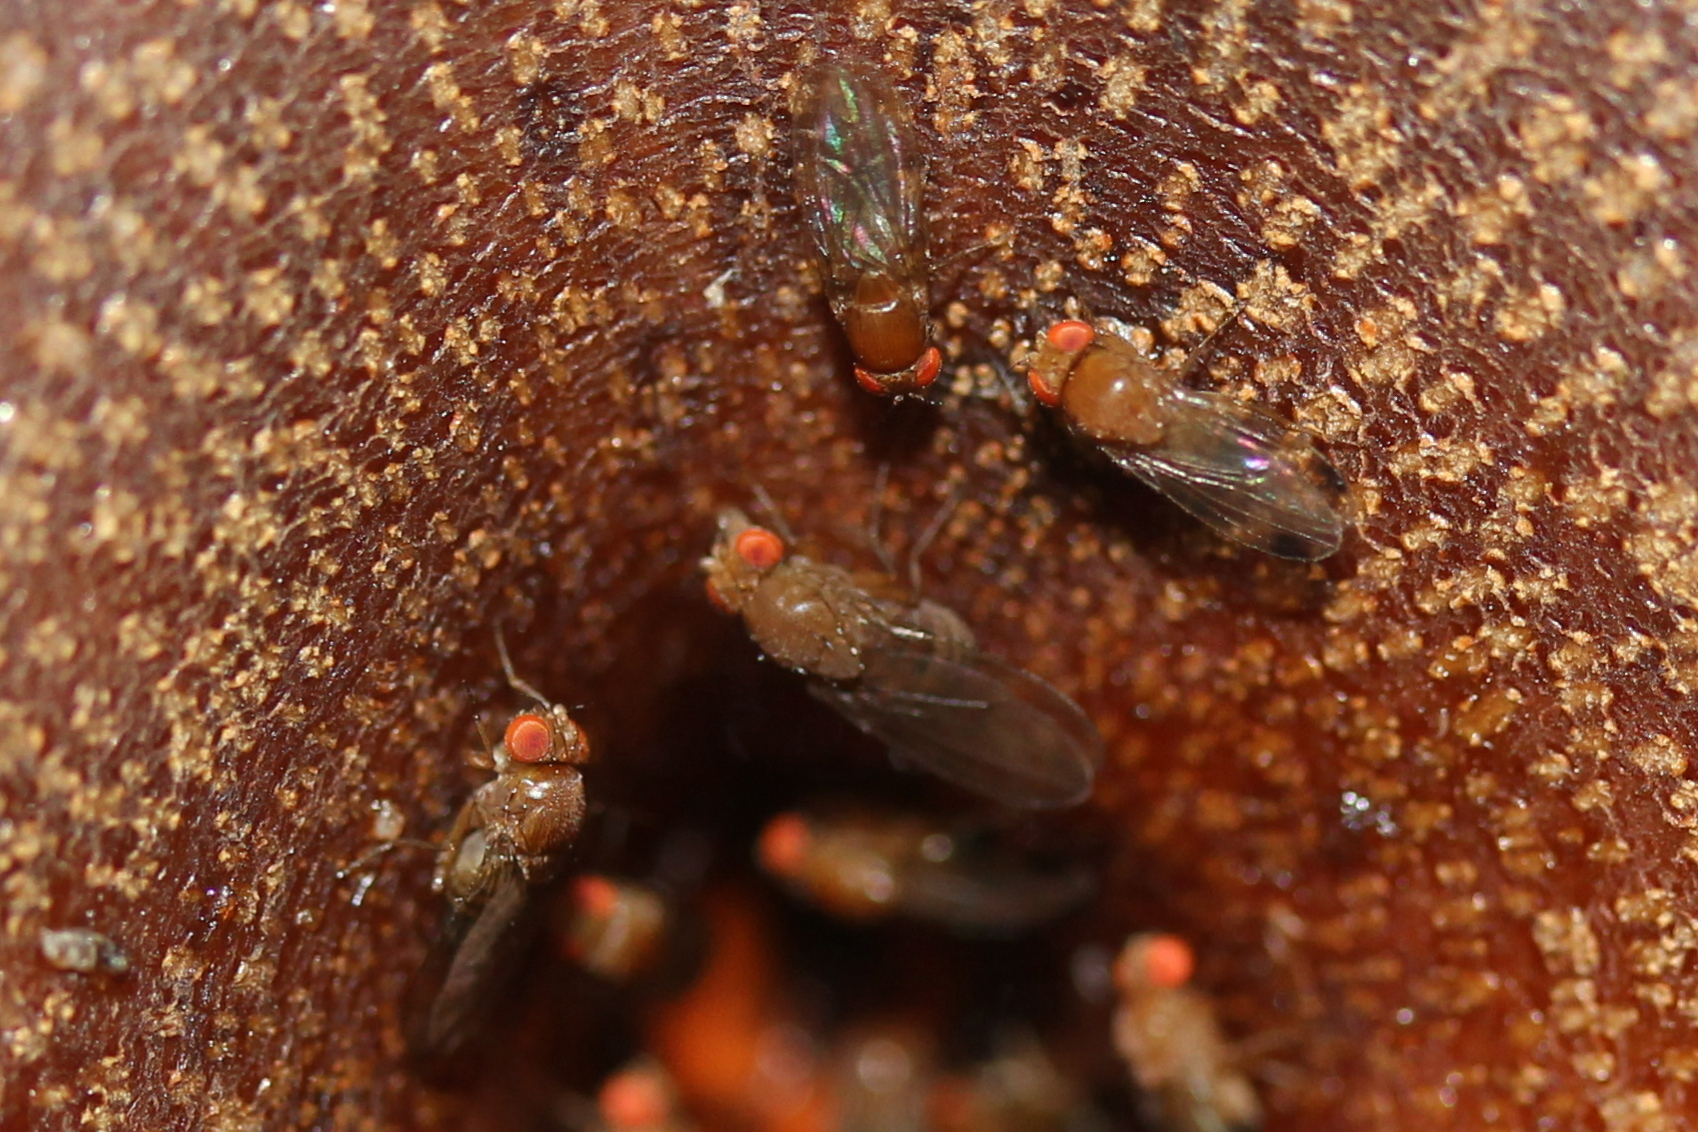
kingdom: Animalia
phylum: Arthropoda
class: Insecta
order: Diptera
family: Drosophilidae
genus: Drosophila
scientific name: Drosophila suzukii
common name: Spotted-wing drosophila
